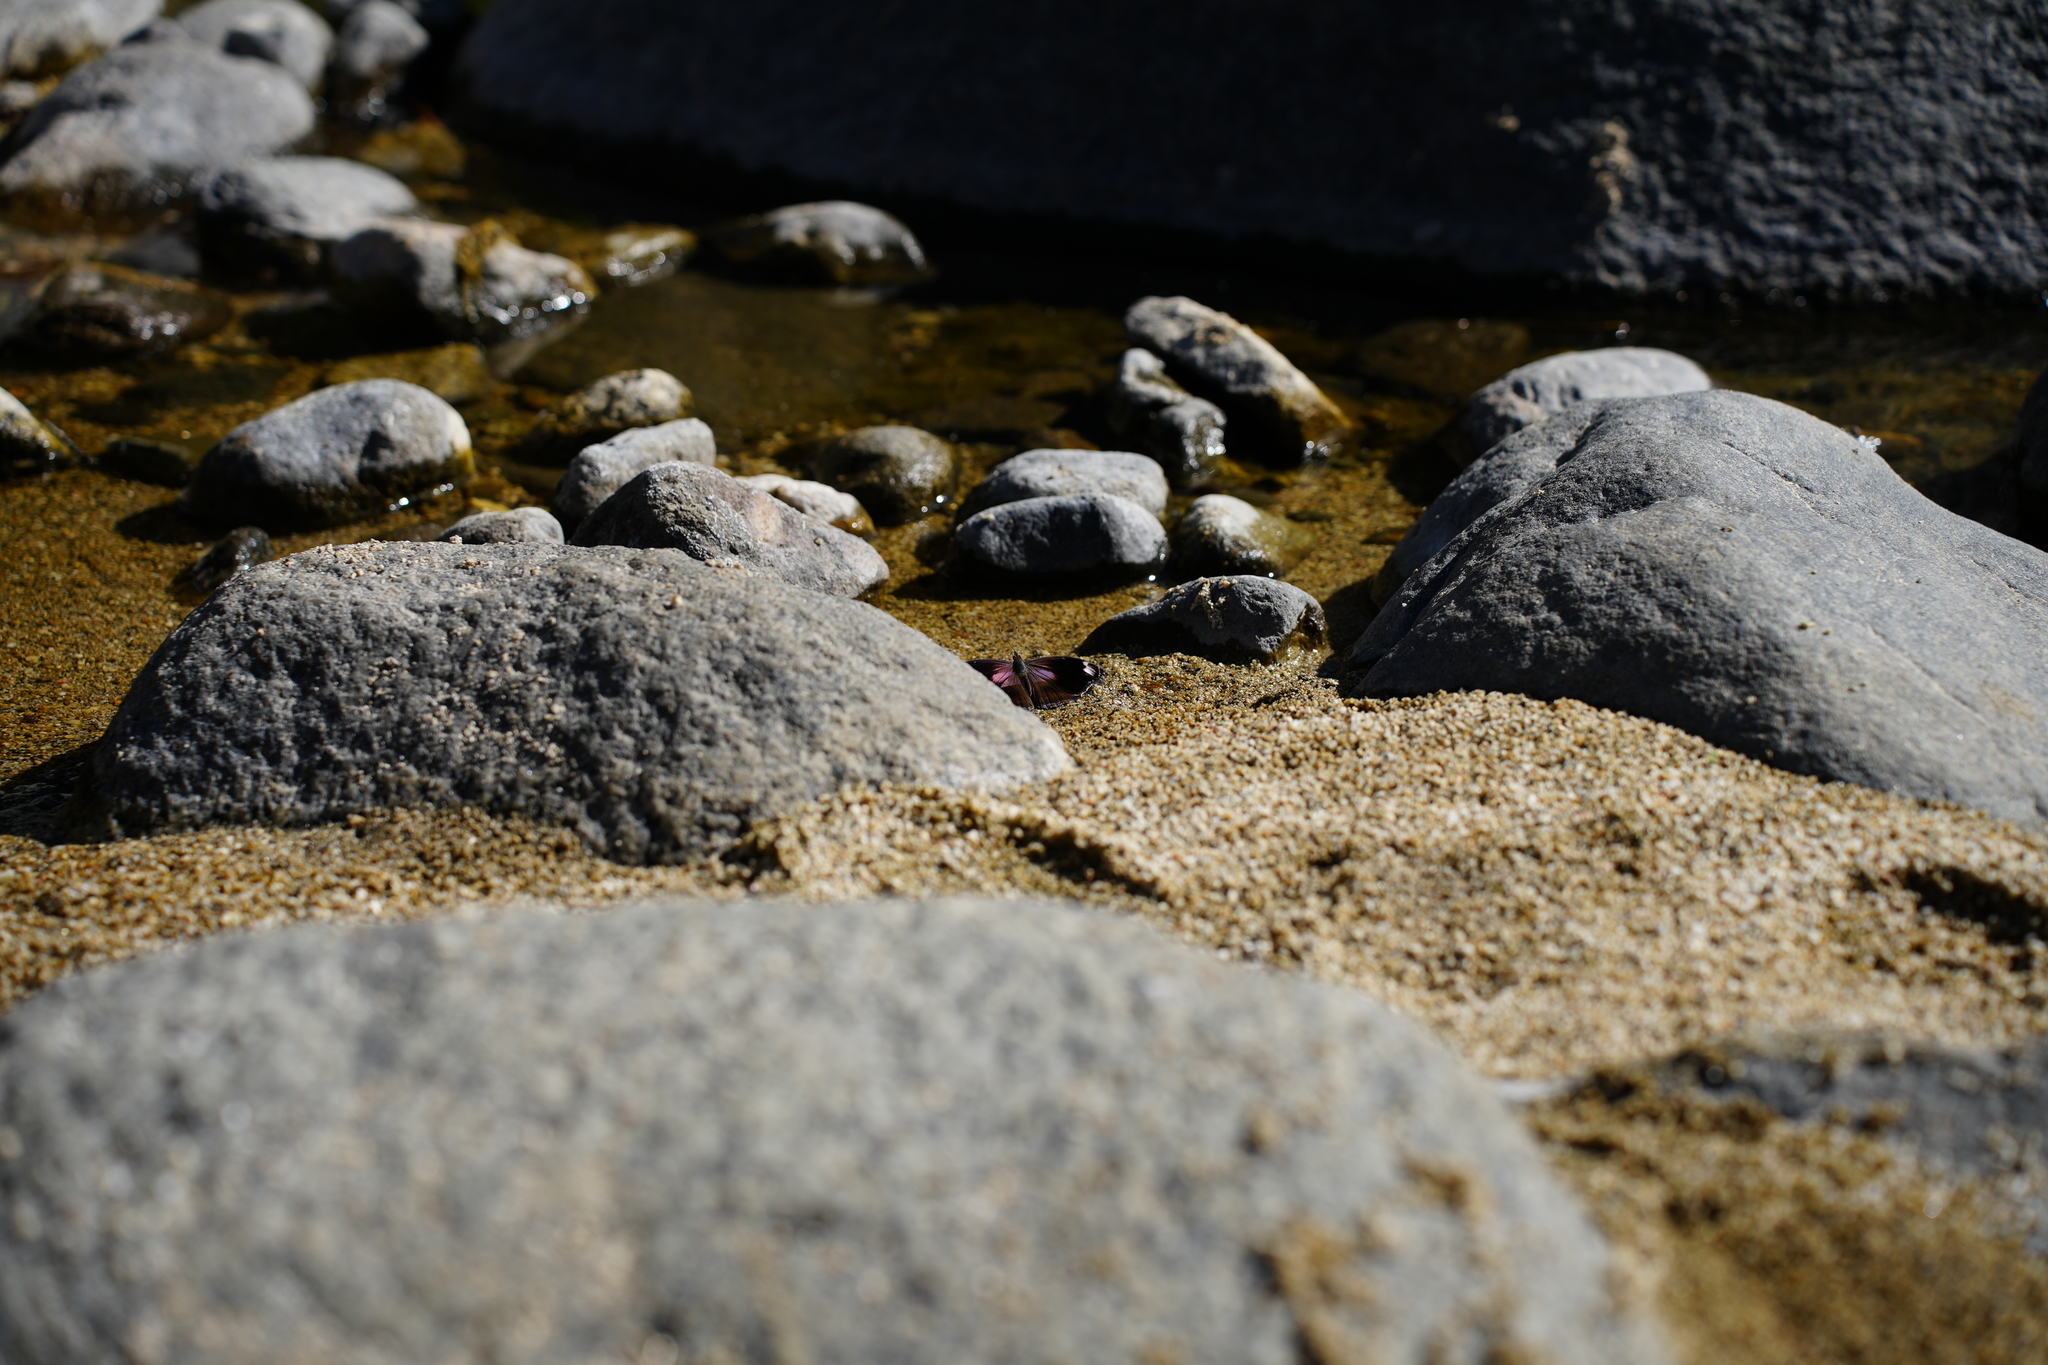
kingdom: Animalia
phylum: Arthropoda
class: Insecta
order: Lepidoptera
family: Nymphalidae
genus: Myscelia
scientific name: Myscelia cyananthe
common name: Blackened bluewing
